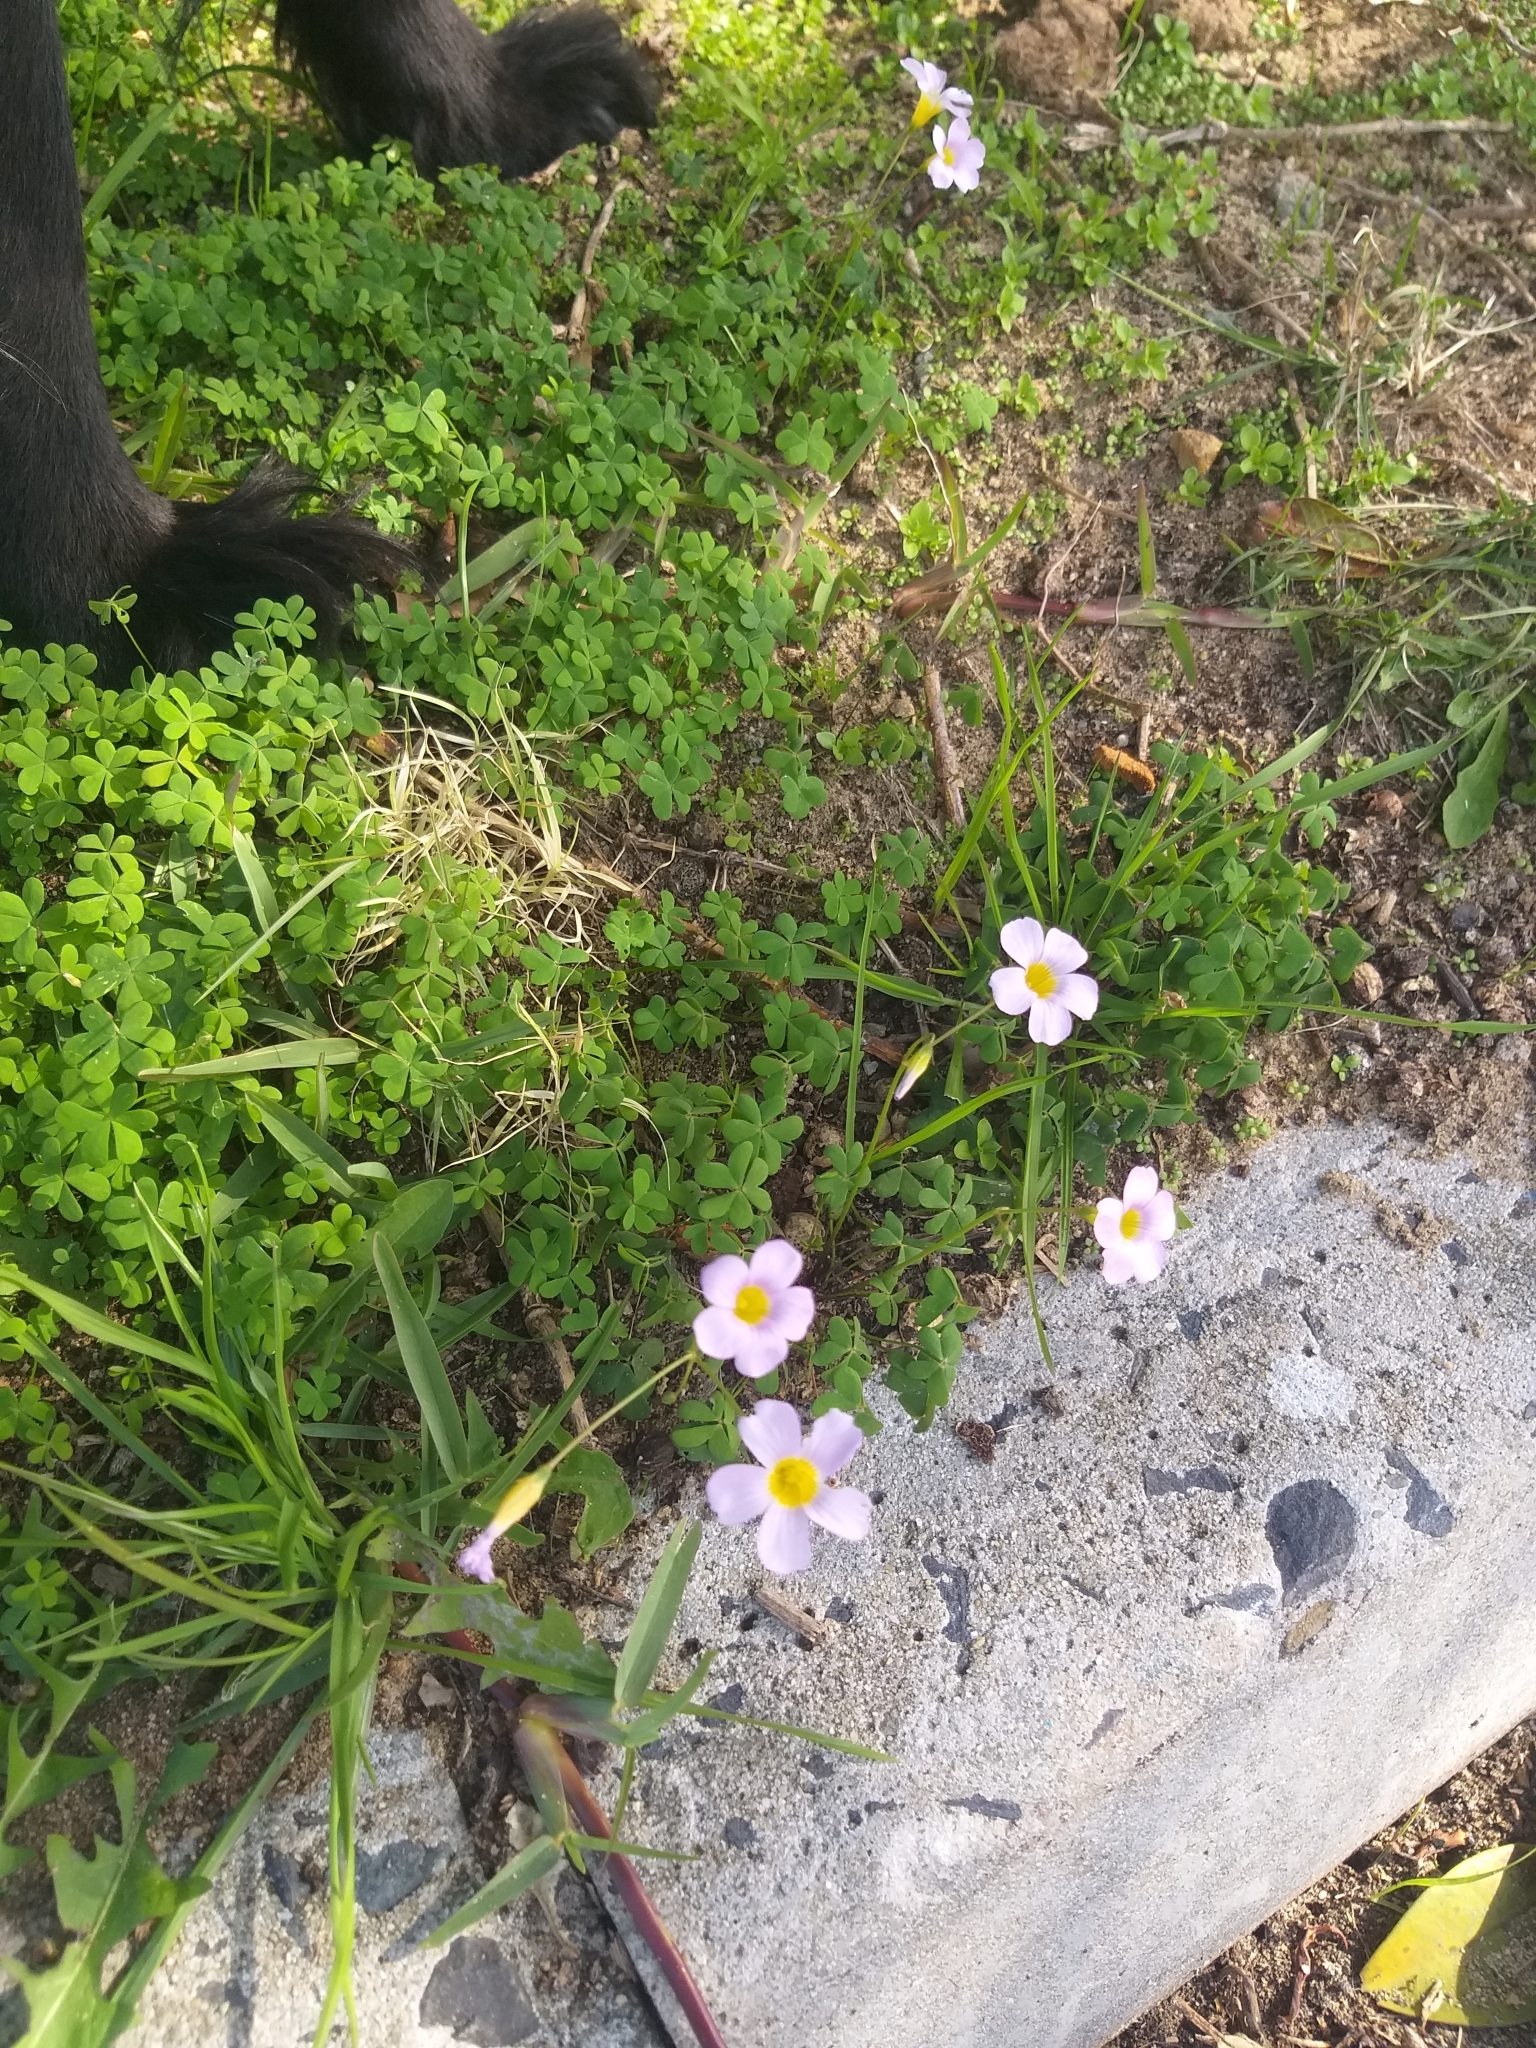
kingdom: Plantae
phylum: Tracheophyta
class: Magnoliopsida
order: Oxalidales
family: Oxalidaceae
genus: Oxalis
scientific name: Oxalis caprina
